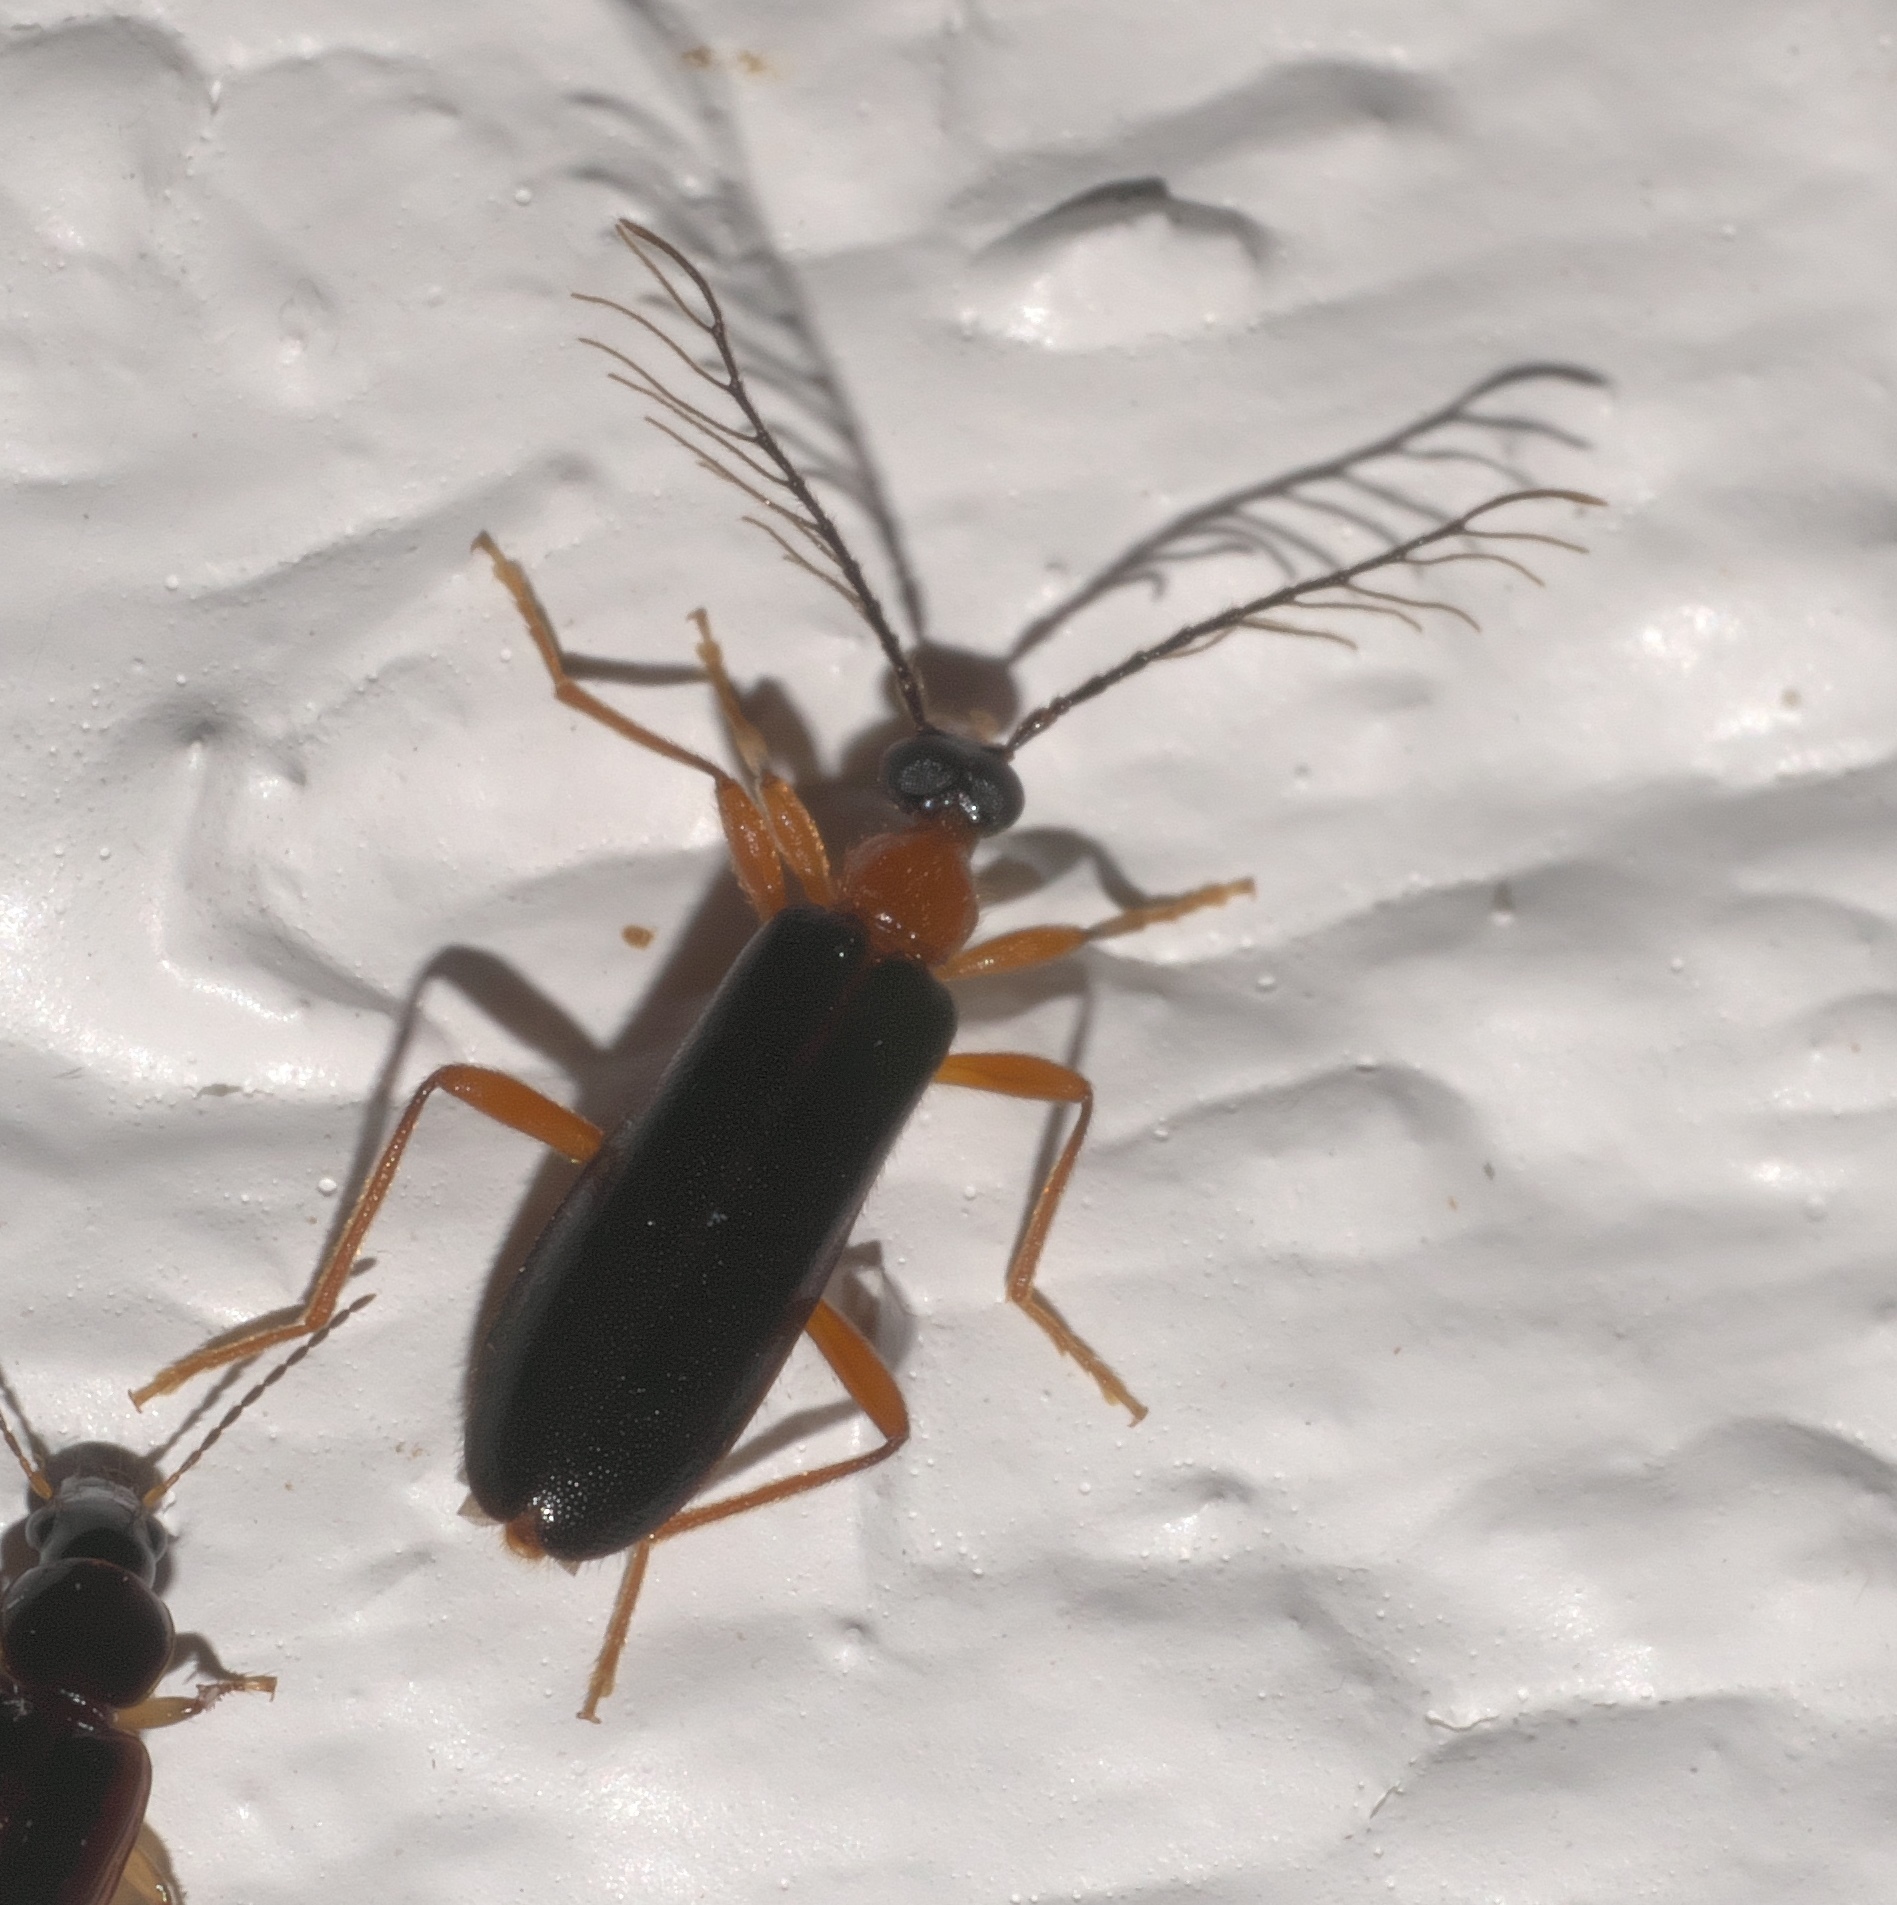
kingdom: Animalia
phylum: Arthropoda
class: Insecta
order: Coleoptera
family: Pyrochroidae
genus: Dendroides
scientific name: Dendroides canadensis
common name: Canada fire-colored beetle
